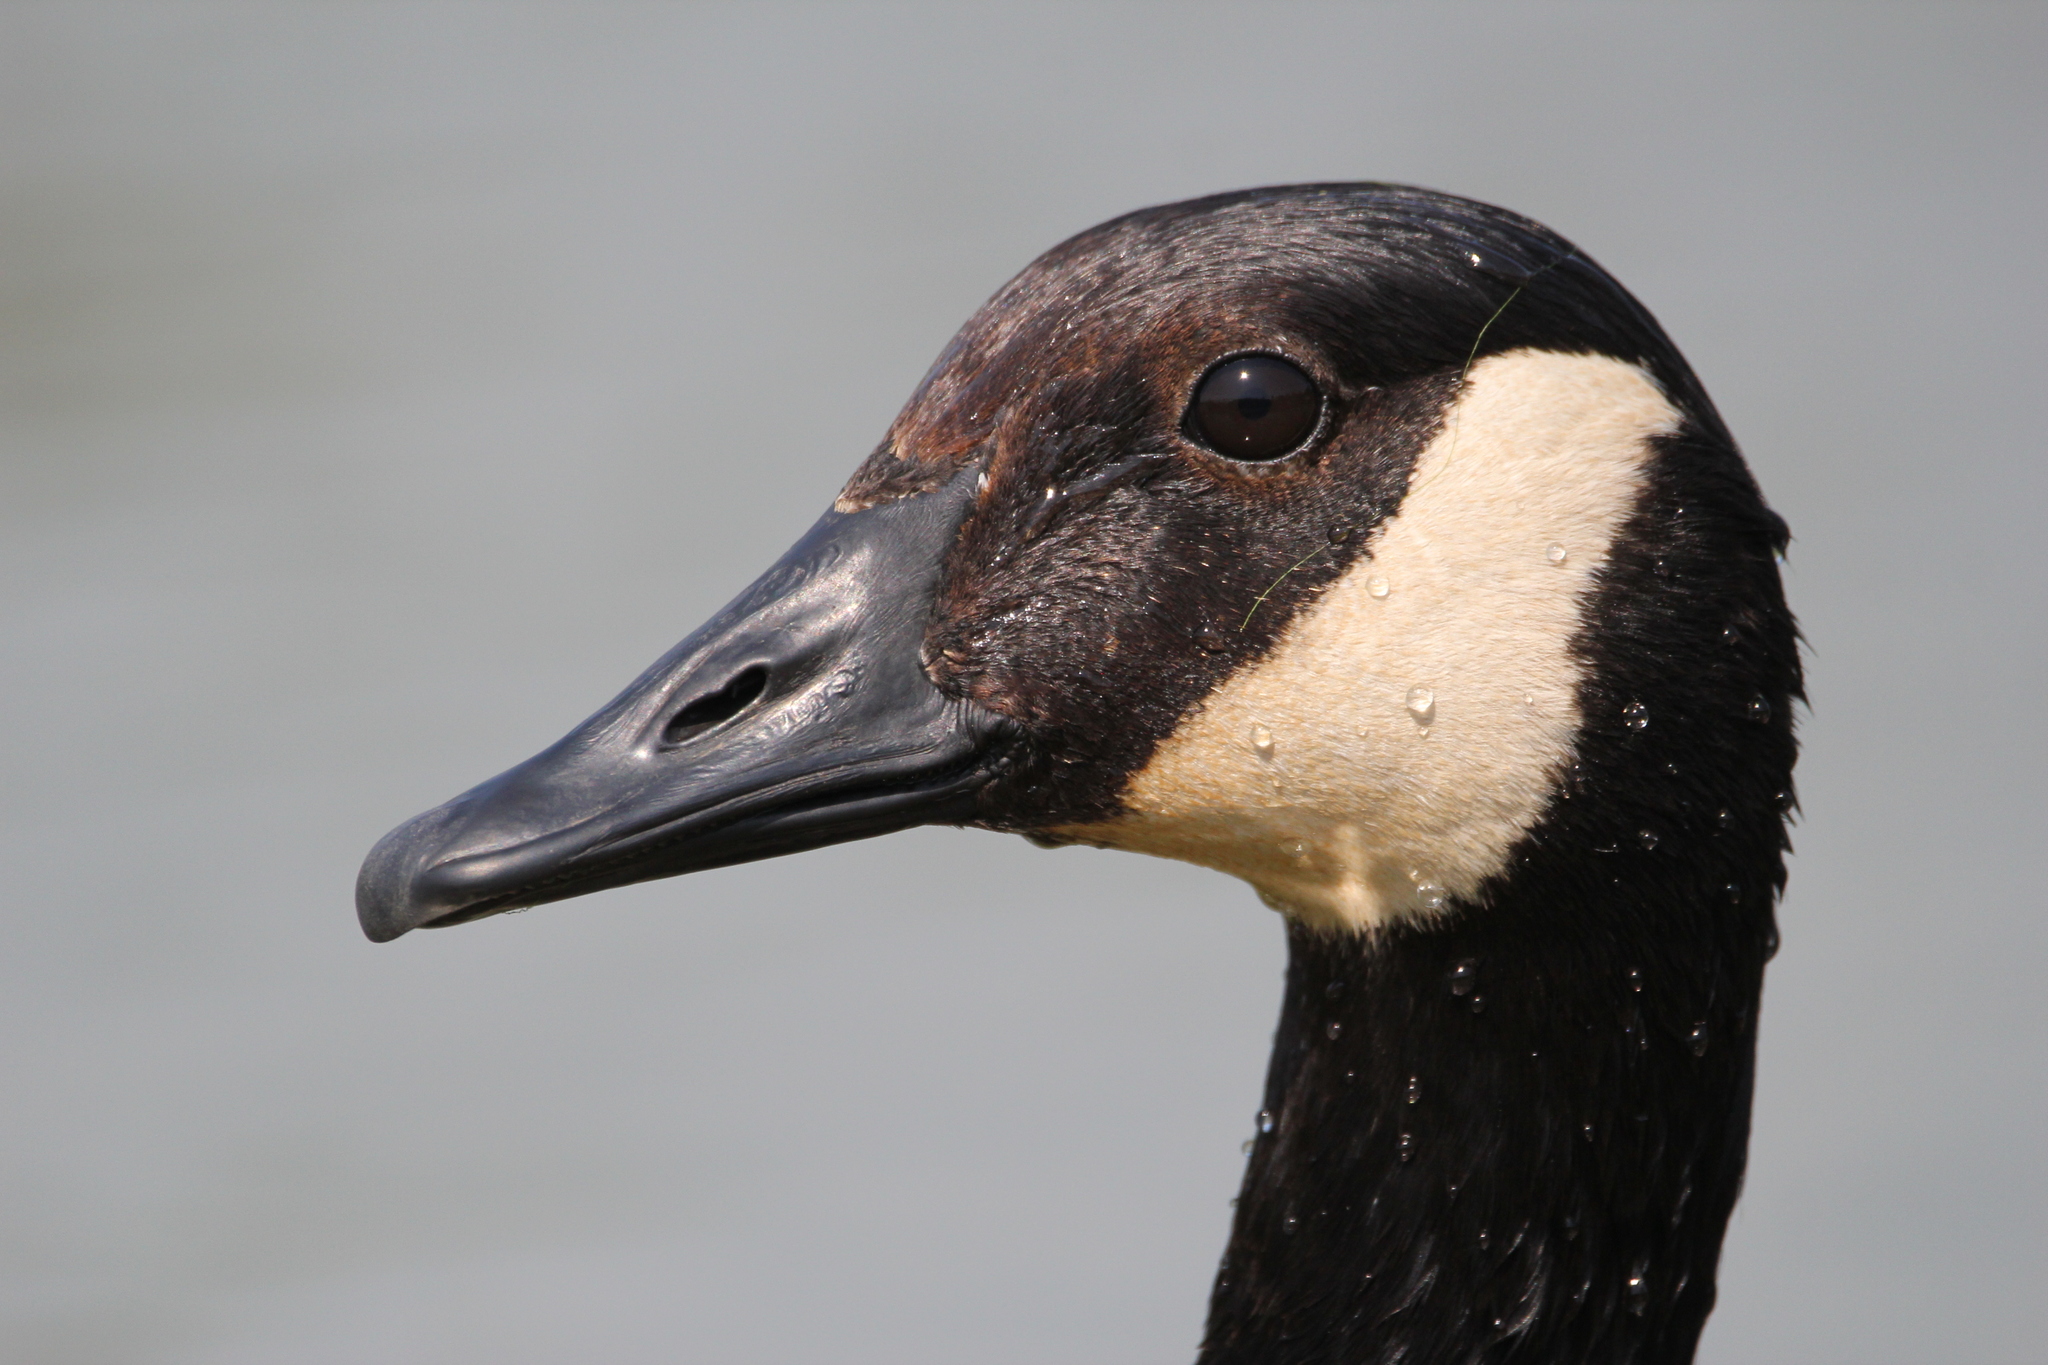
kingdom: Animalia
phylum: Chordata
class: Aves
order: Anseriformes
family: Anatidae
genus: Branta
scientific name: Branta canadensis
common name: Canada goose
